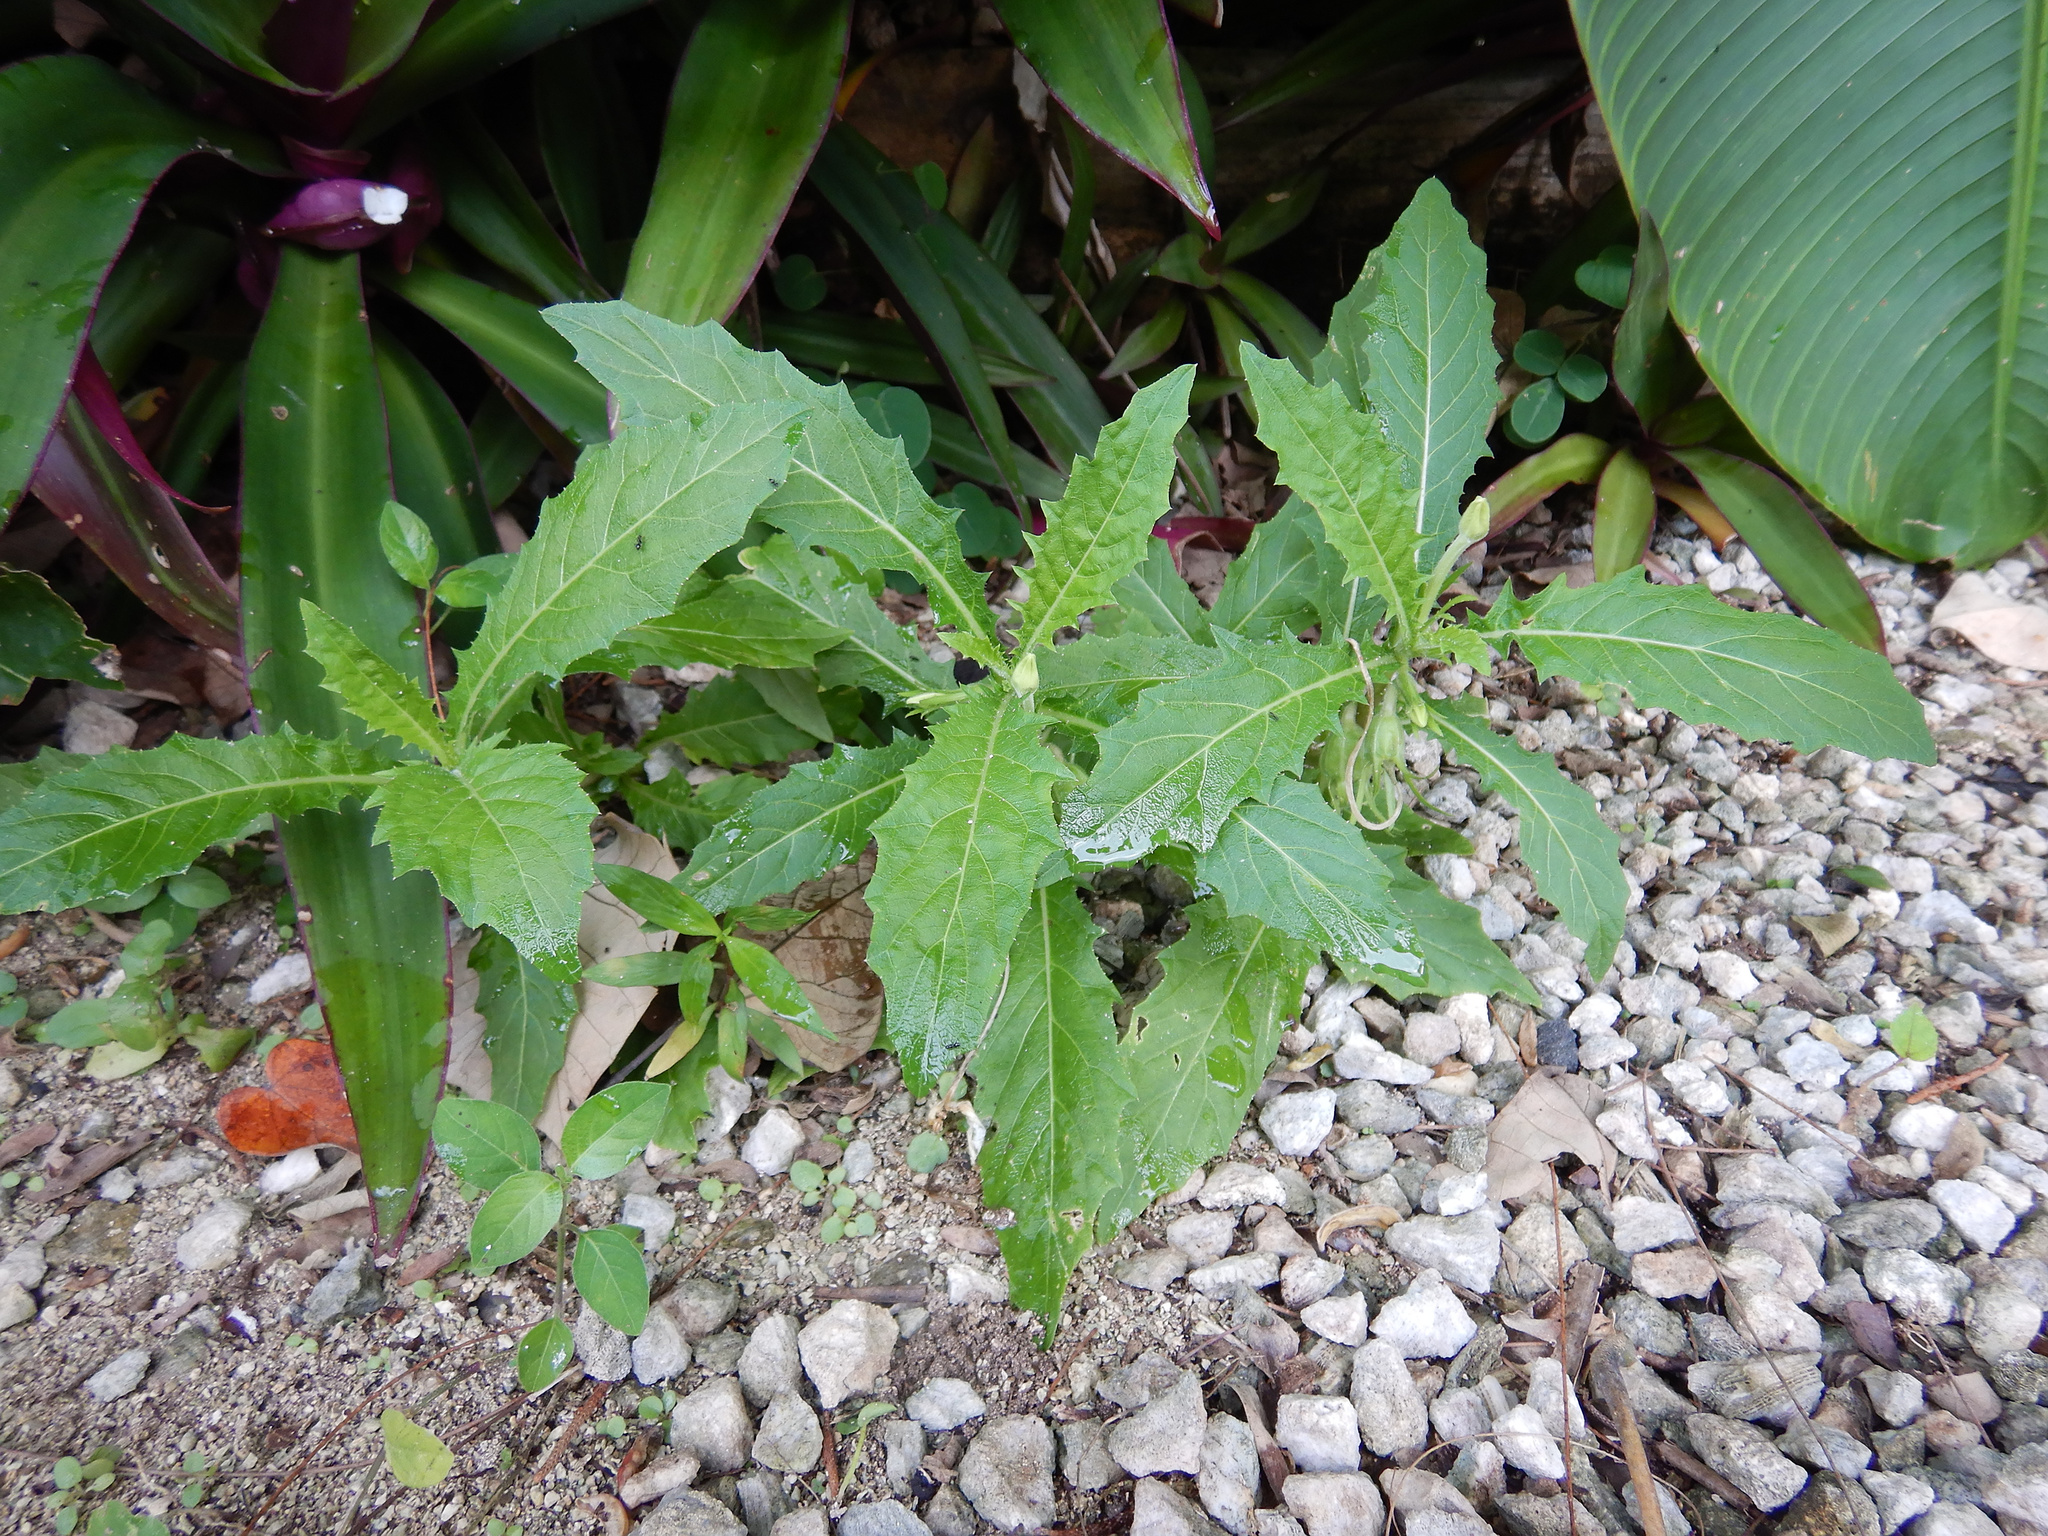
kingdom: Plantae
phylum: Tracheophyta
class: Magnoliopsida
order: Asterales
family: Campanulaceae
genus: Hippobroma
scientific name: Hippobroma longiflora
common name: Madamfate
